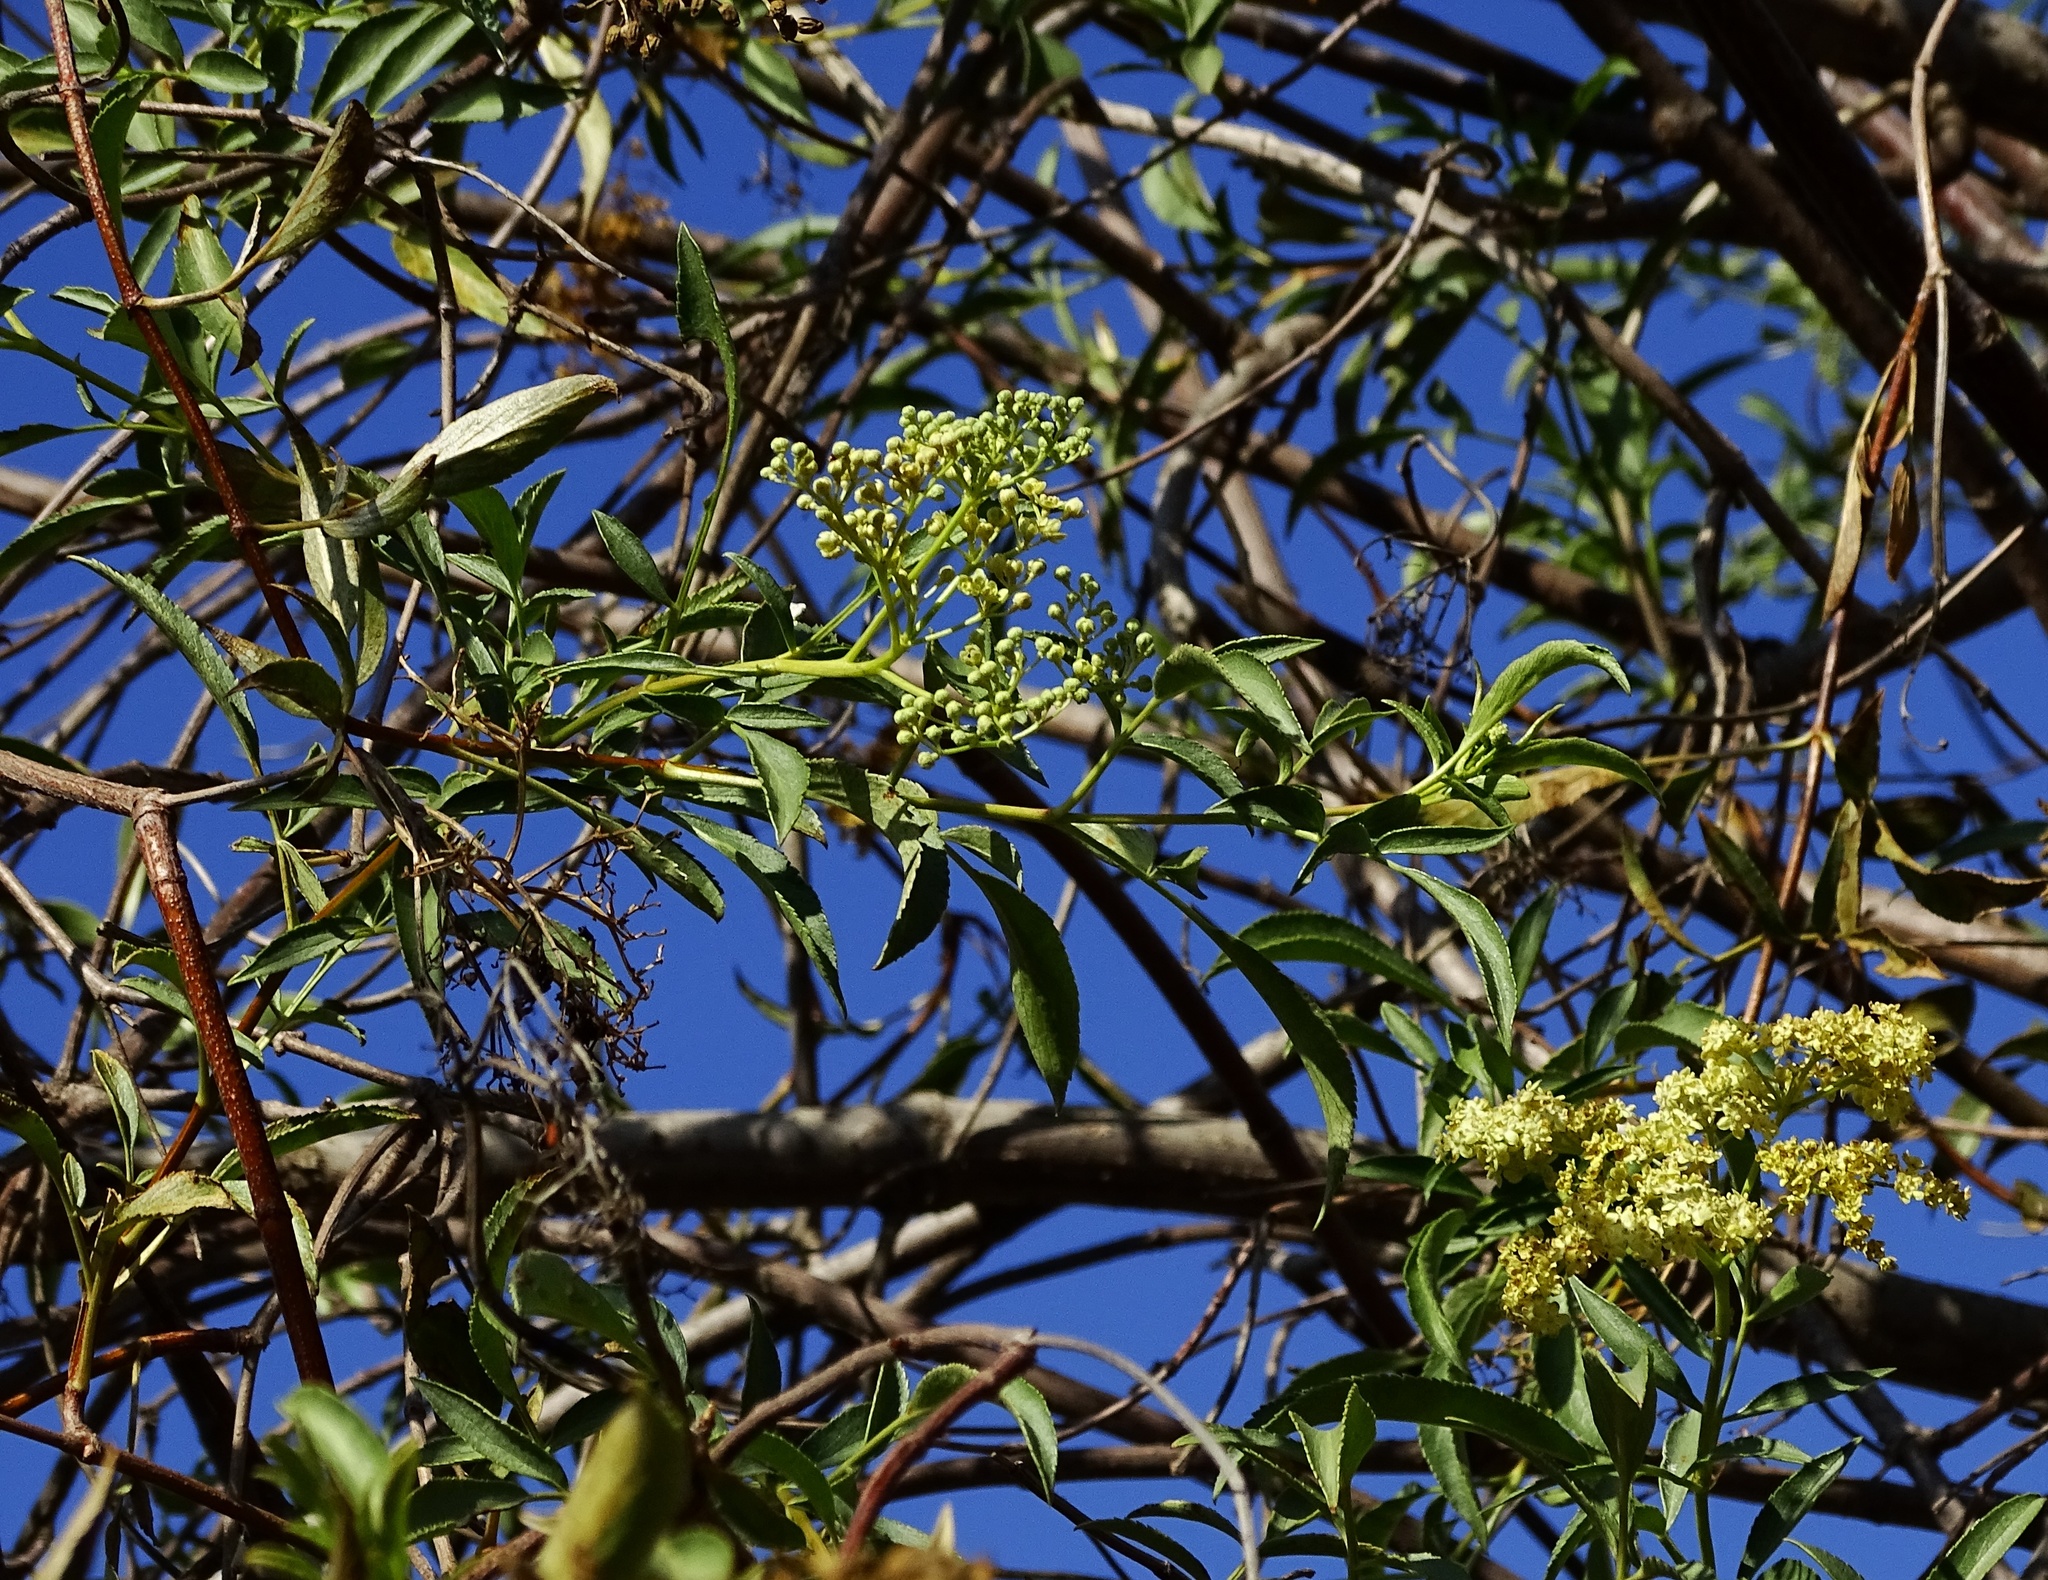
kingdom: Plantae
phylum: Tracheophyta
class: Magnoliopsida
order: Dipsacales
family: Viburnaceae
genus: Sambucus
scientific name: Sambucus cerulea
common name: Blue elder
